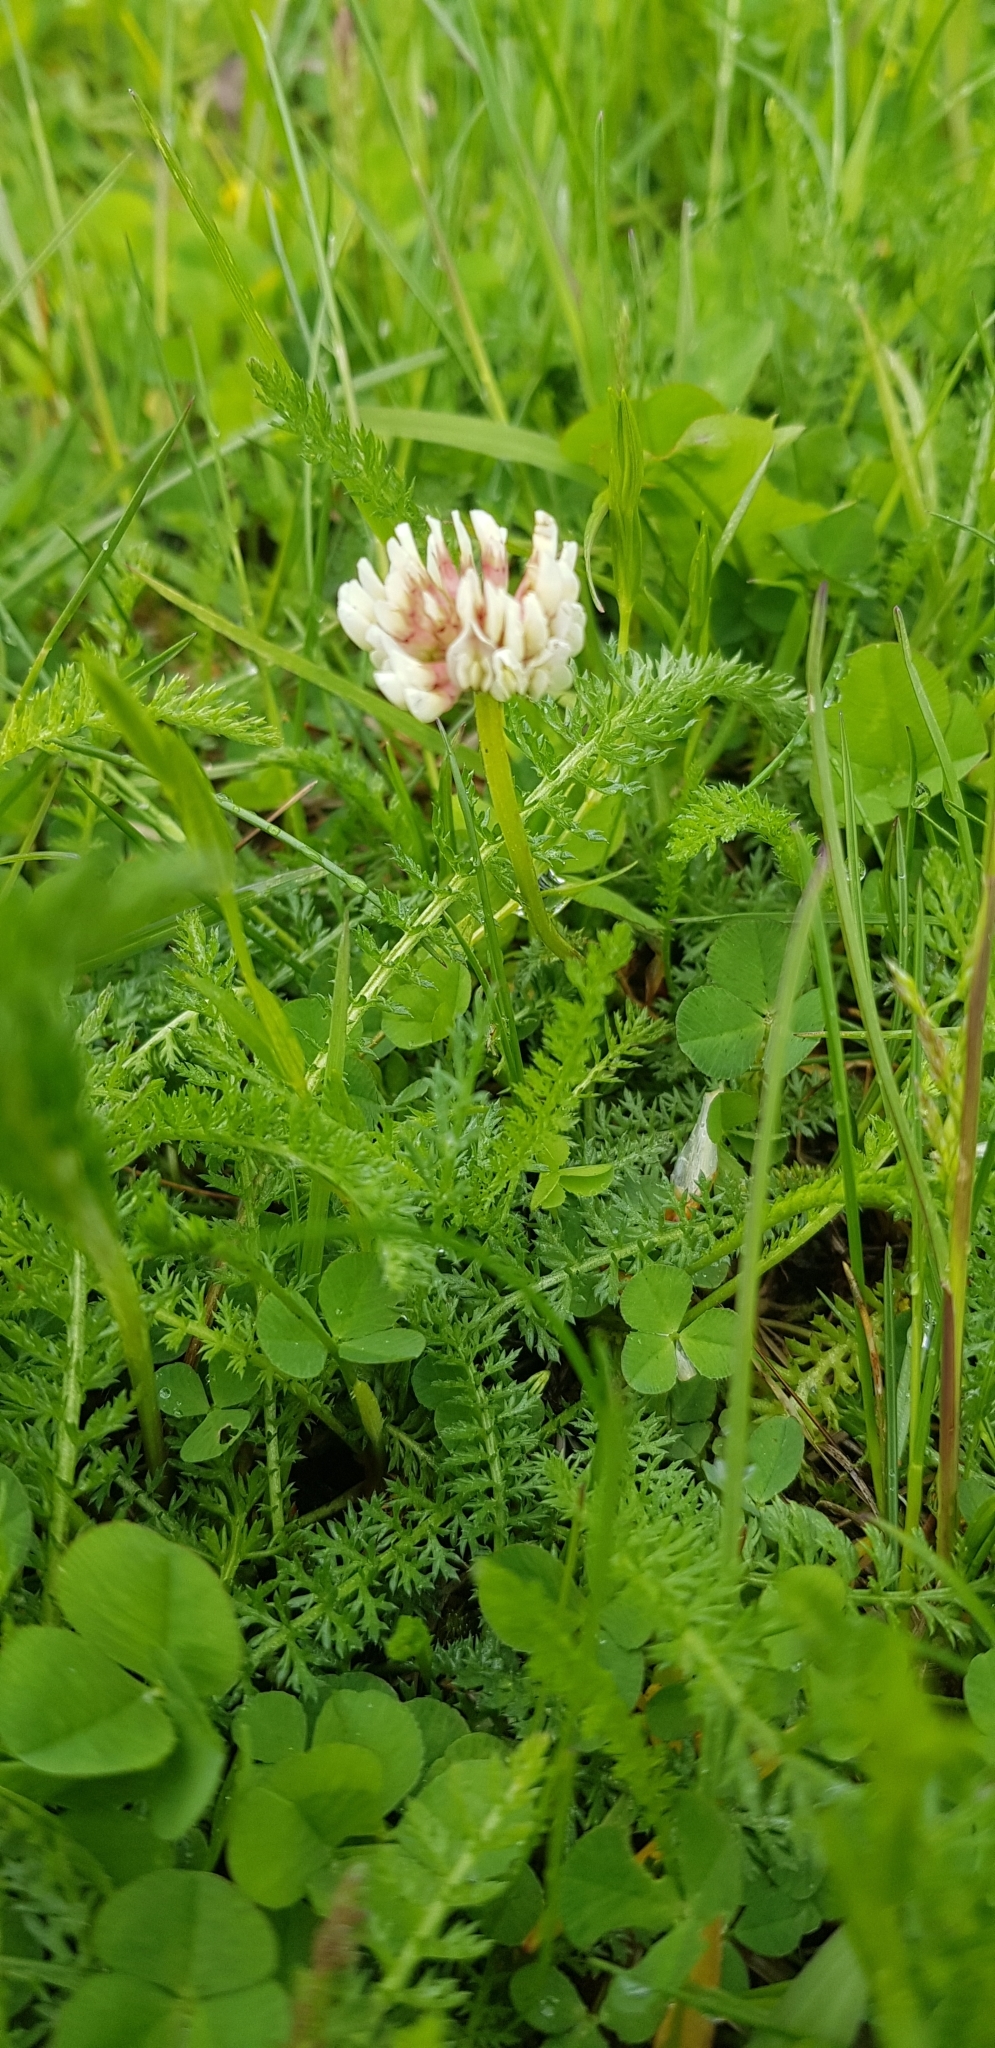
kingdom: Plantae
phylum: Tracheophyta
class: Magnoliopsida
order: Fabales
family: Fabaceae
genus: Trifolium
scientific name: Trifolium repens
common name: White clover
